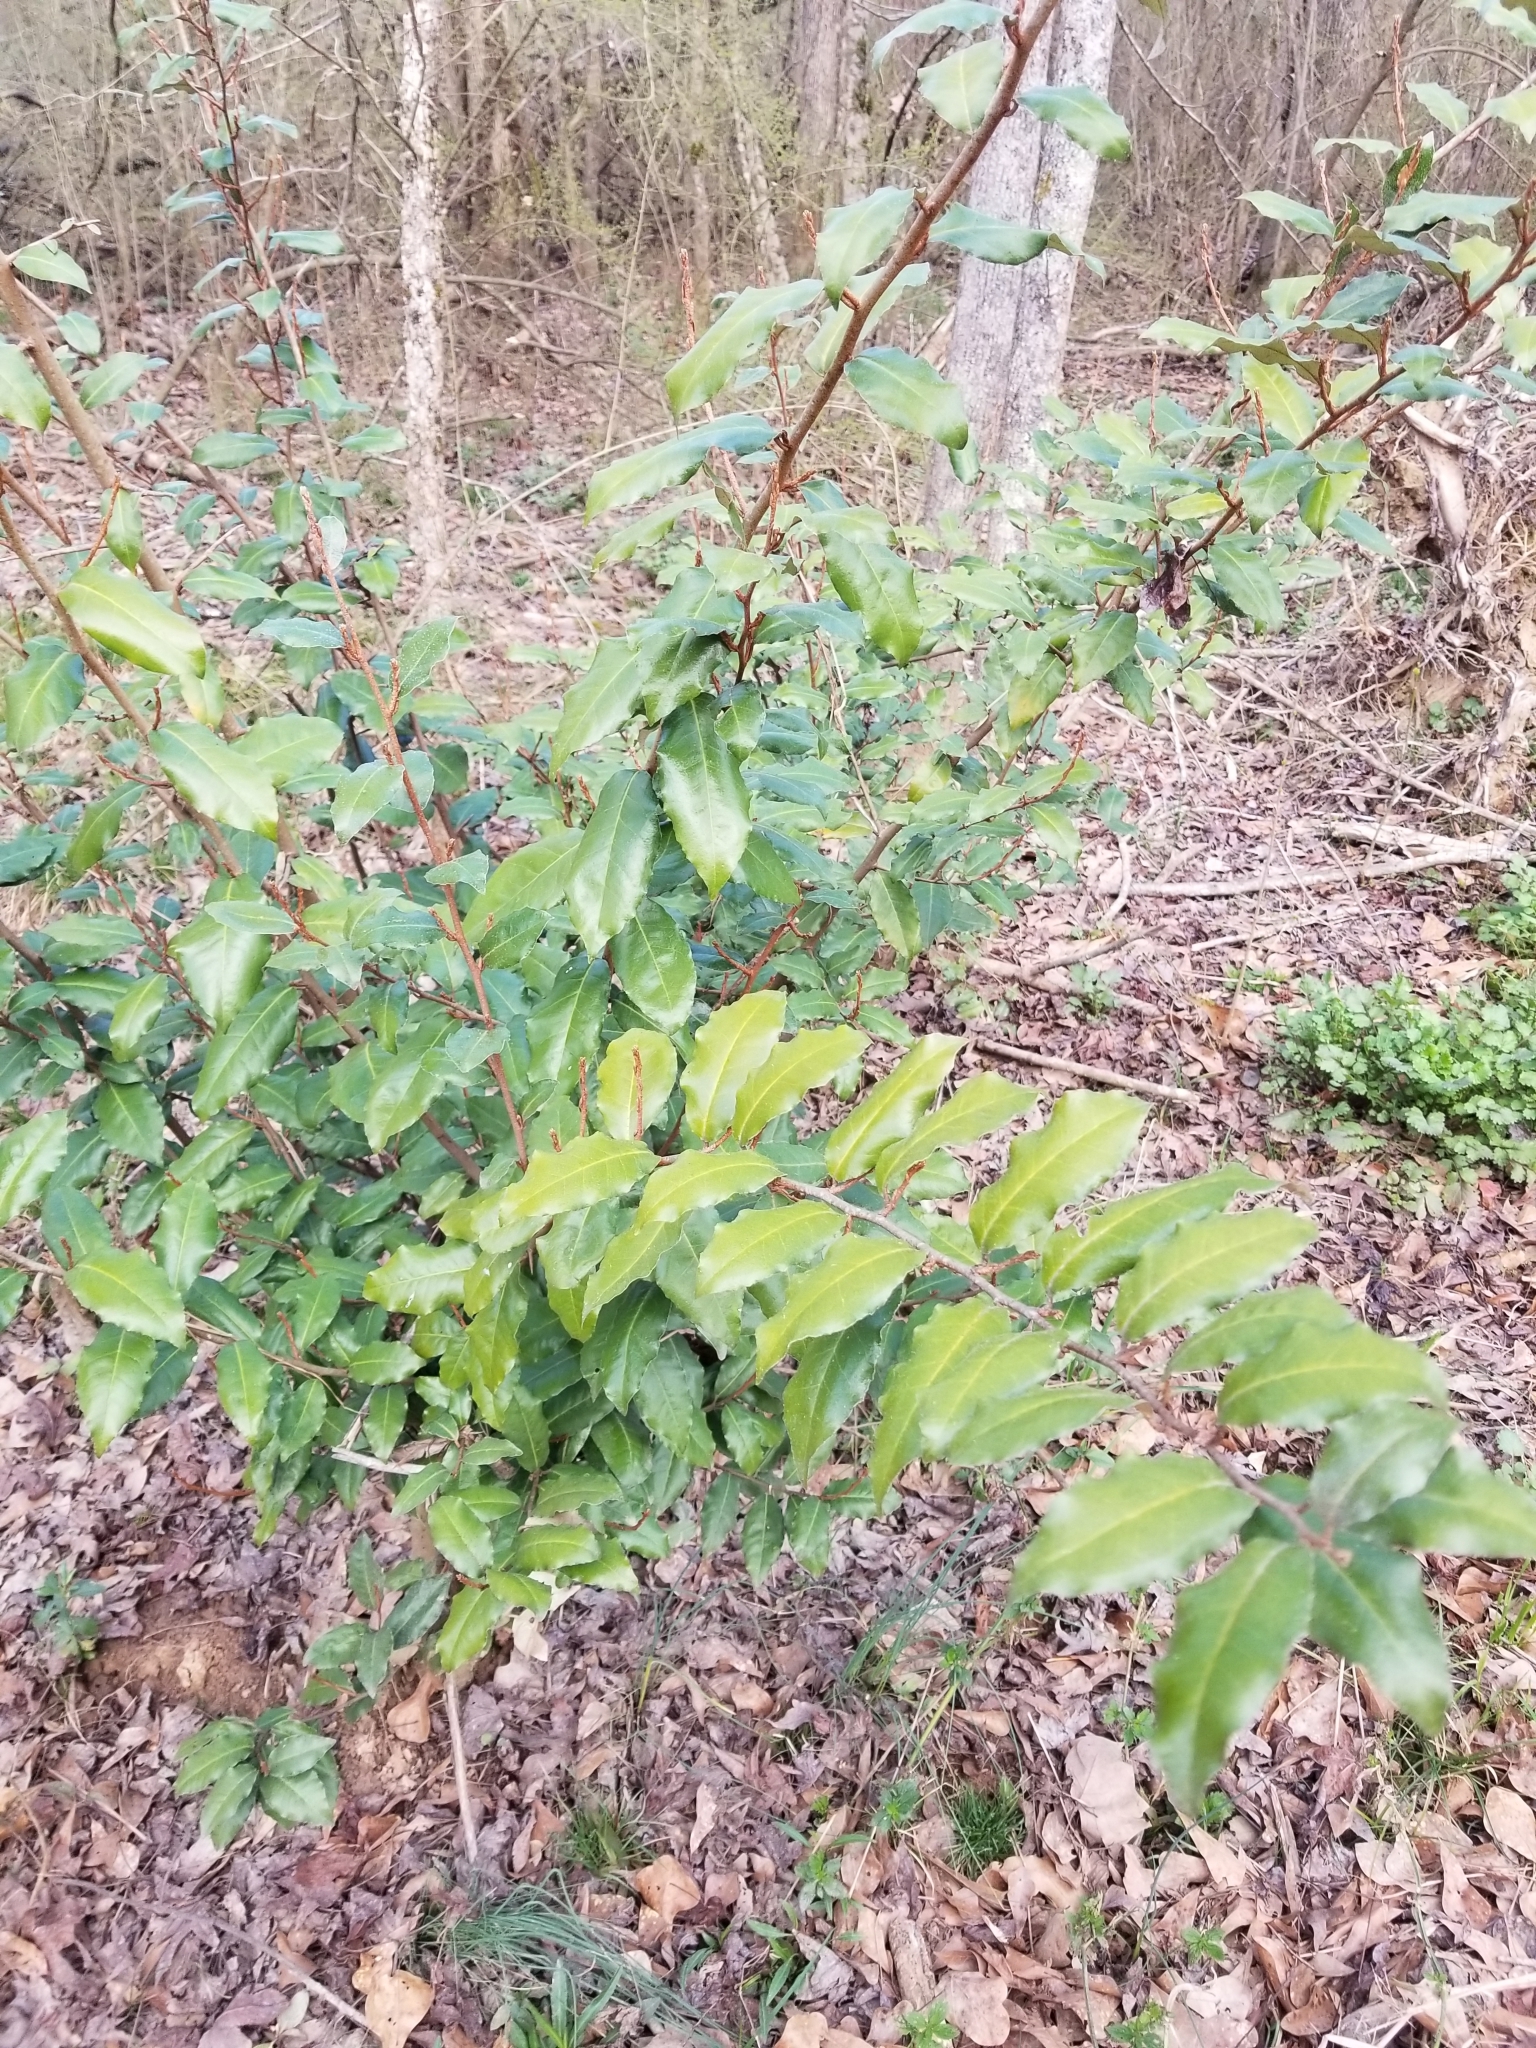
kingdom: Plantae
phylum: Tracheophyta
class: Magnoliopsida
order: Rosales
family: Elaeagnaceae
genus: Elaeagnus
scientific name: Elaeagnus pungens
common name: Spiny oleaster
